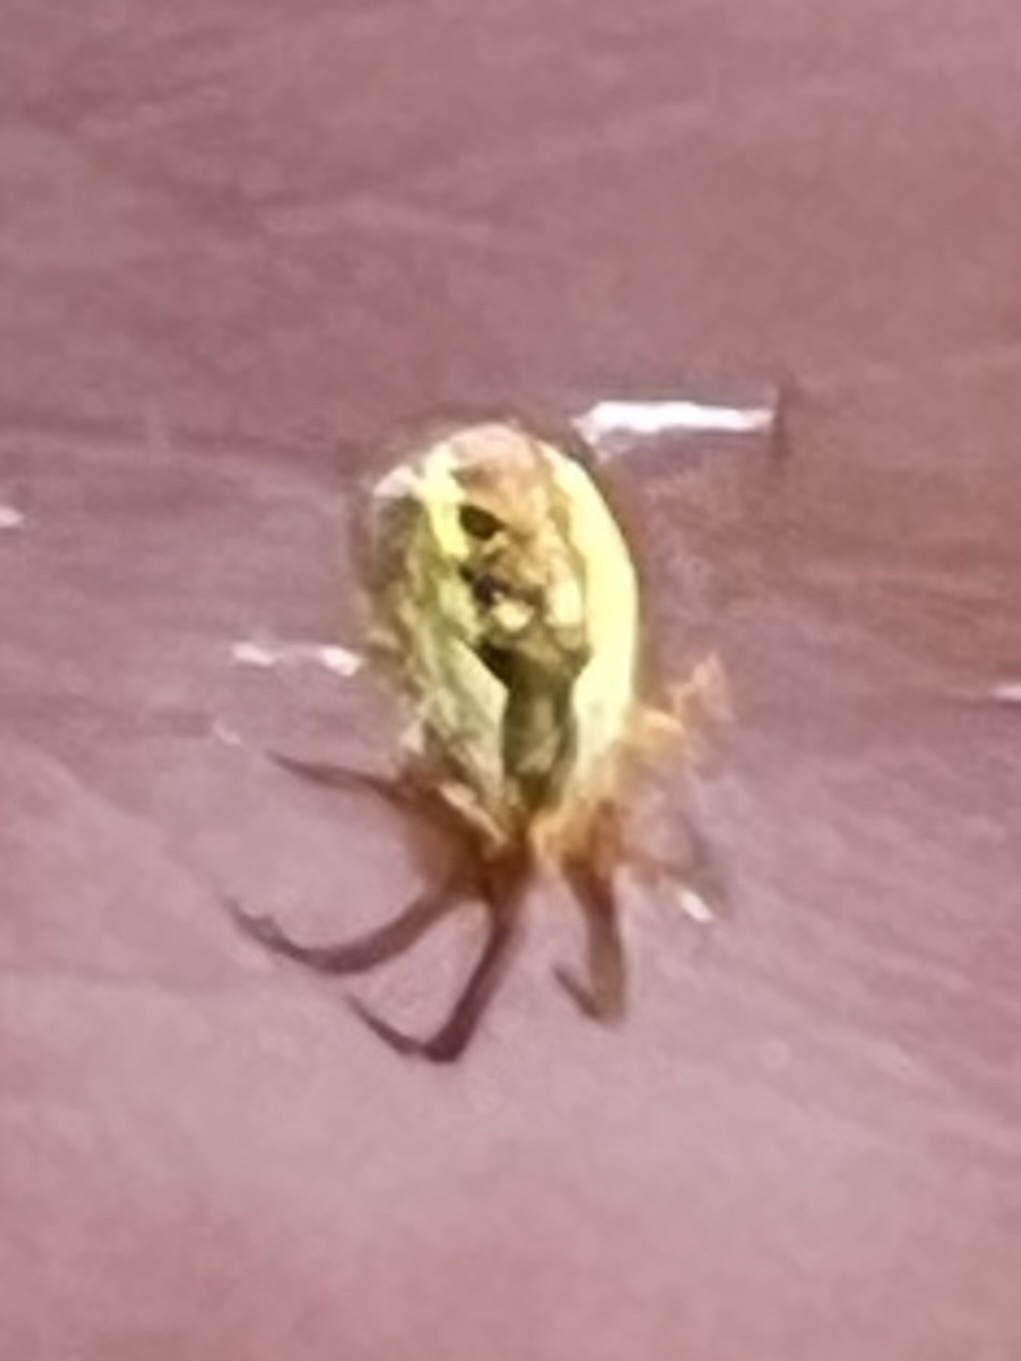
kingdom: Animalia
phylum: Arthropoda
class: Arachnida
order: Araneae
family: Araneidae
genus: Mangora
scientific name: Mangora placida
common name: Tuft-legged orbweaver
